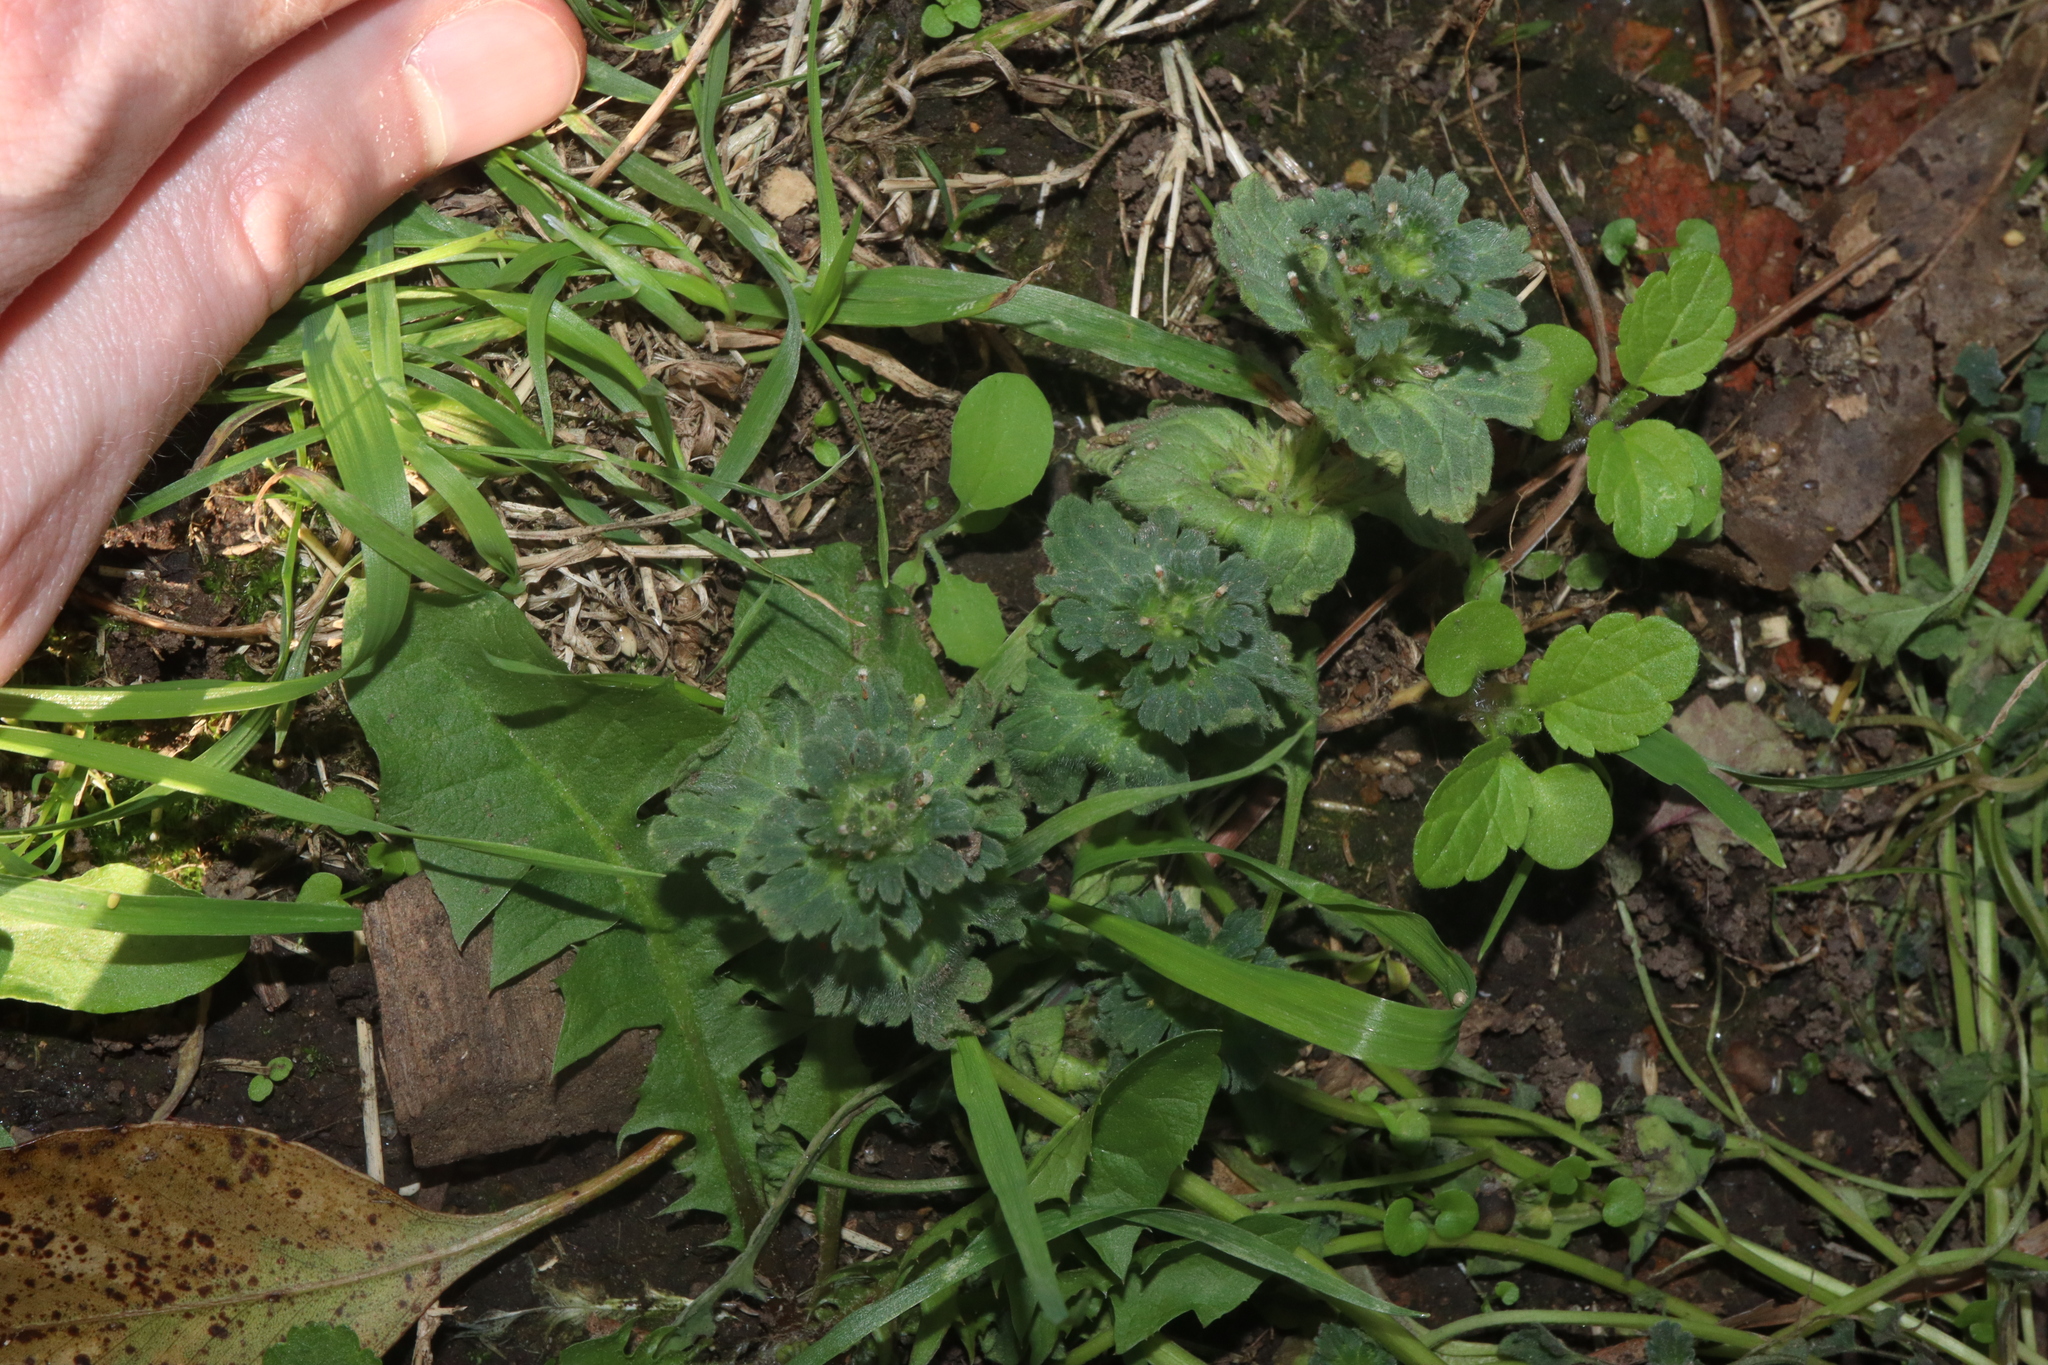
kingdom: Plantae
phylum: Tracheophyta
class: Magnoliopsida
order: Lamiales
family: Lamiaceae
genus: Lamium
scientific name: Lamium amplexicaule
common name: Henbit dead-nettle
